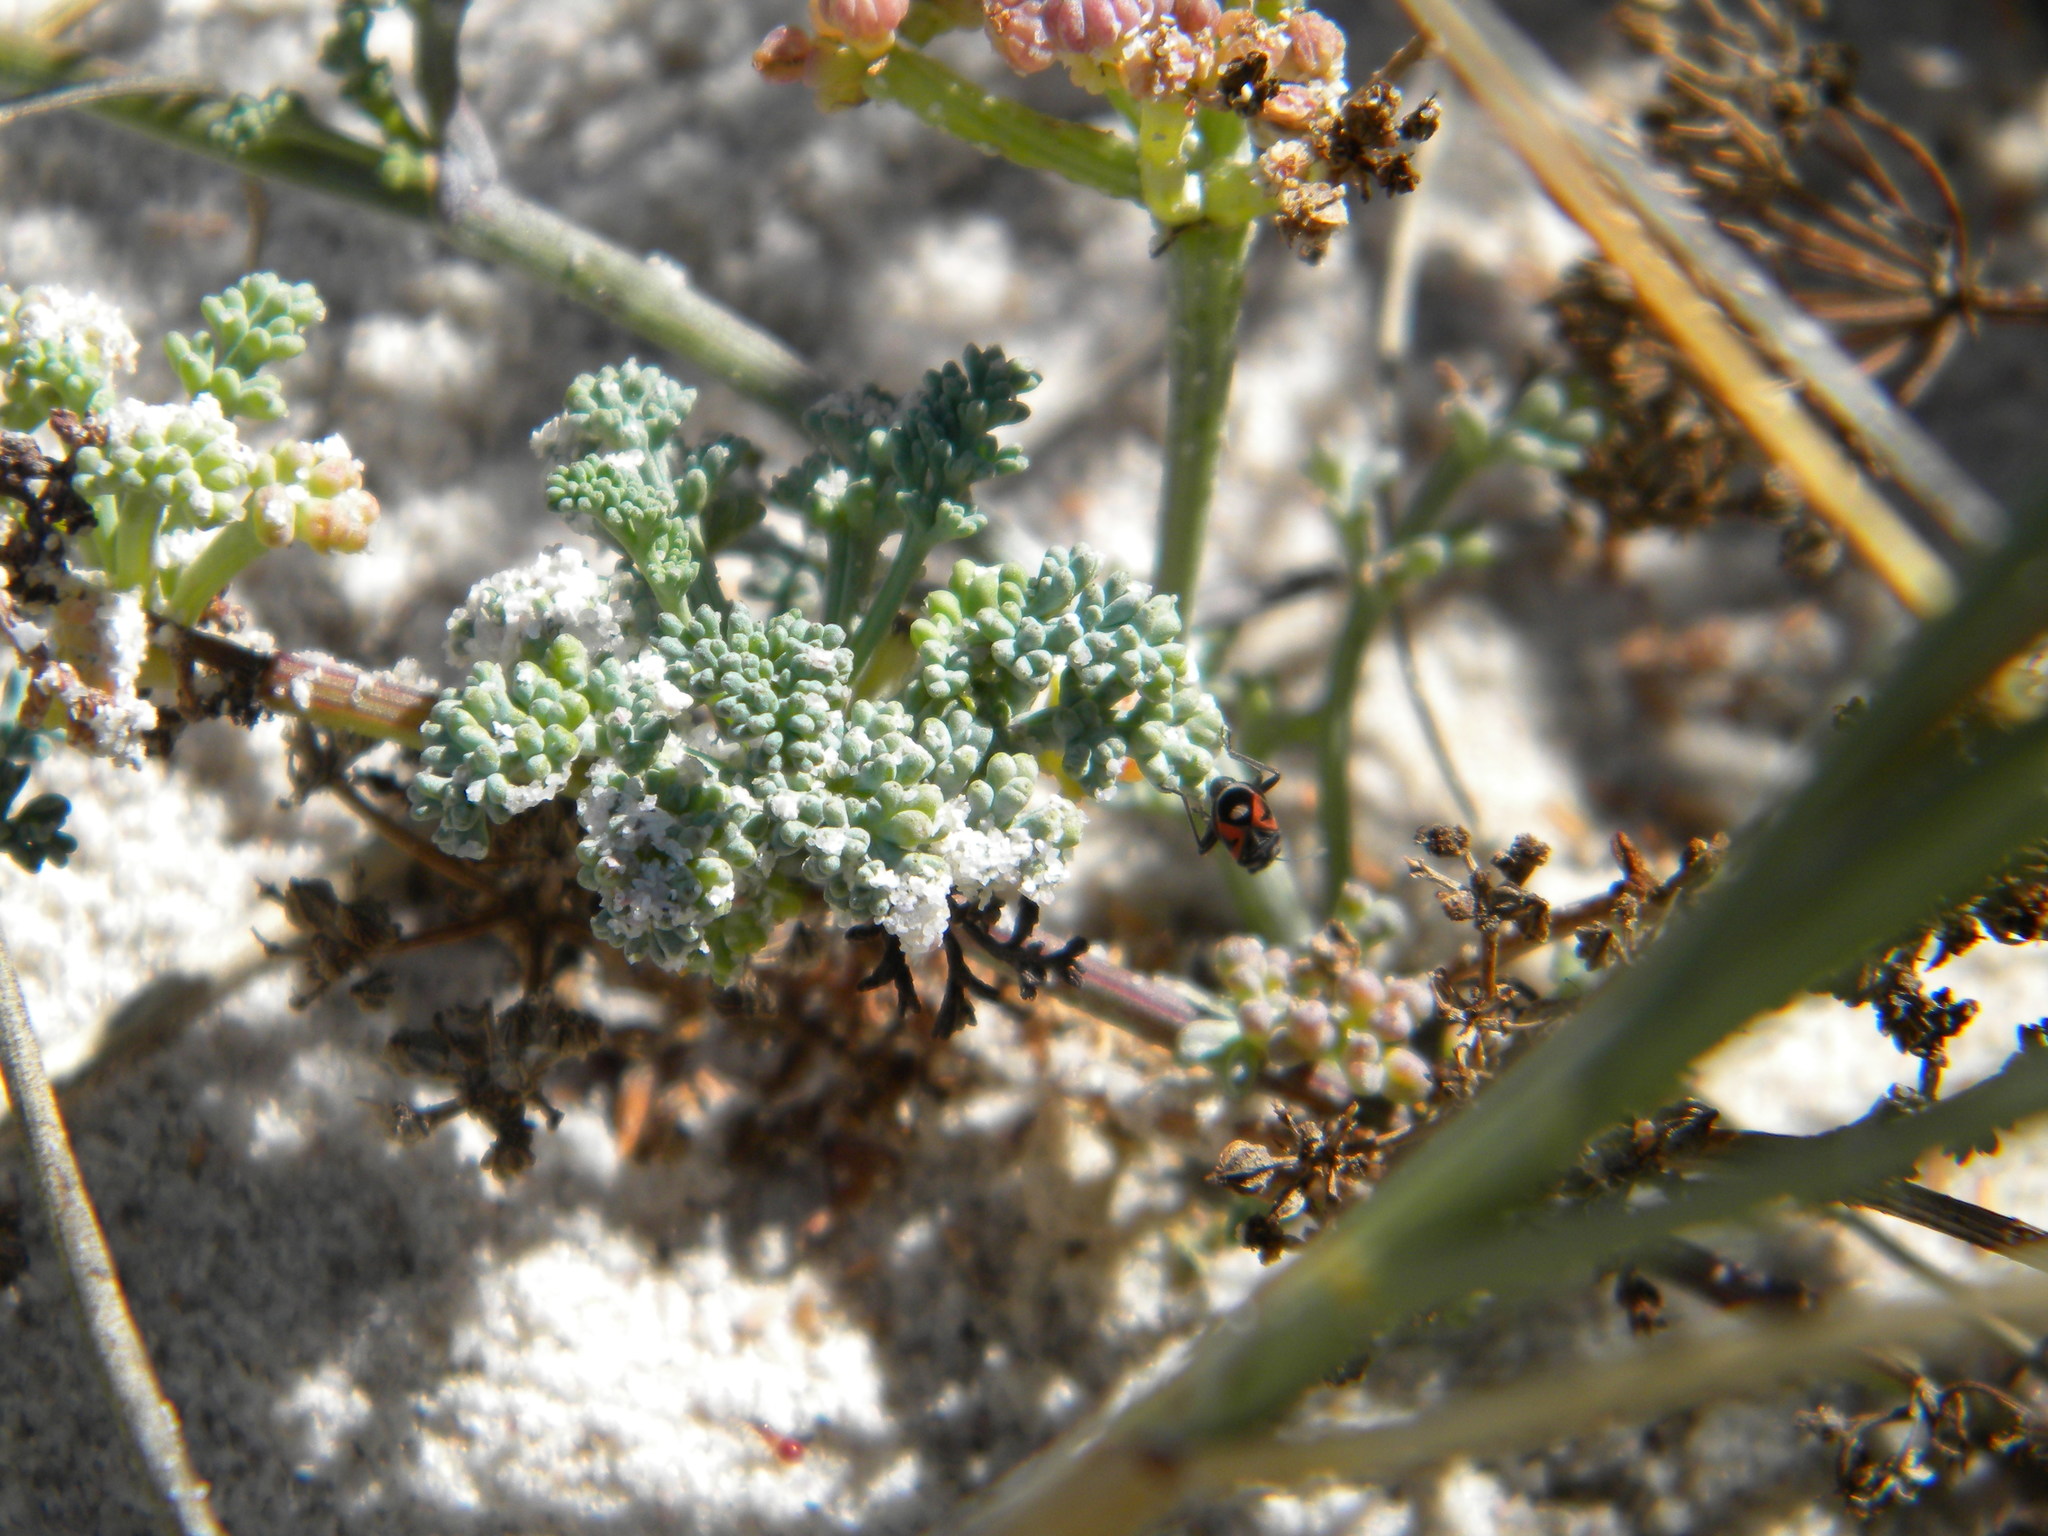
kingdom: Animalia
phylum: Arthropoda
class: Insecta
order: Hemiptera
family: Lygaeidae
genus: Melanostethus
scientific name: Melanostethus marginatus
